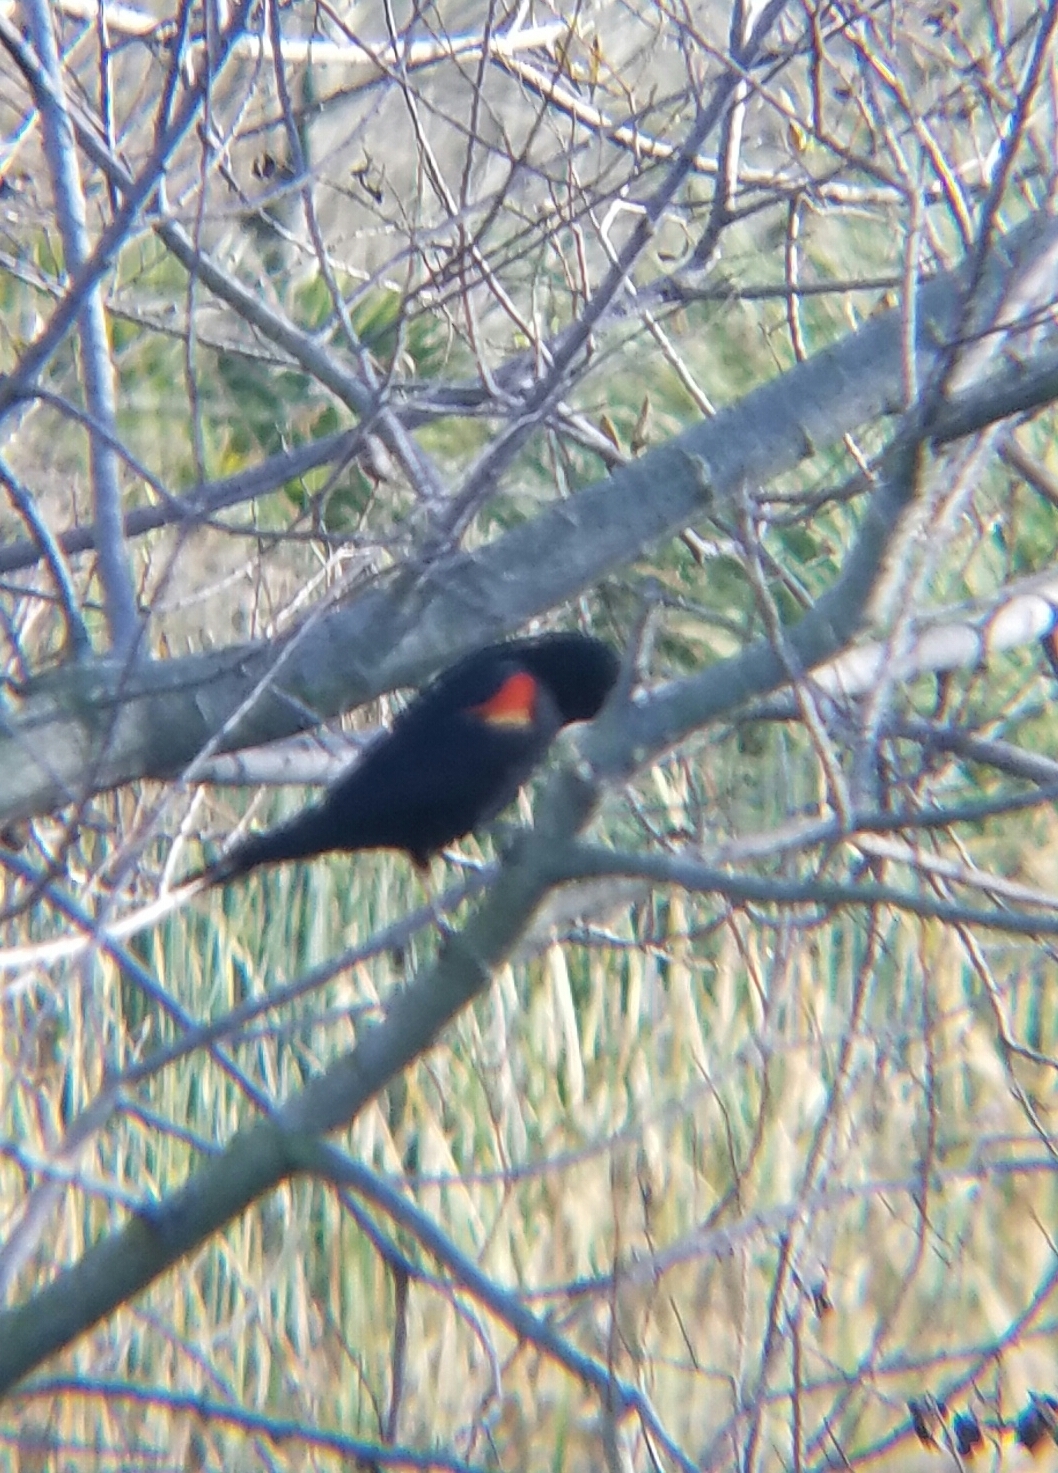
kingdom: Animalia
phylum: Chordata
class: Aves
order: Passeriformes
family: Icteridae
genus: Agelaius
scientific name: Agelaius phoeniceus
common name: Red-winged blackbird
